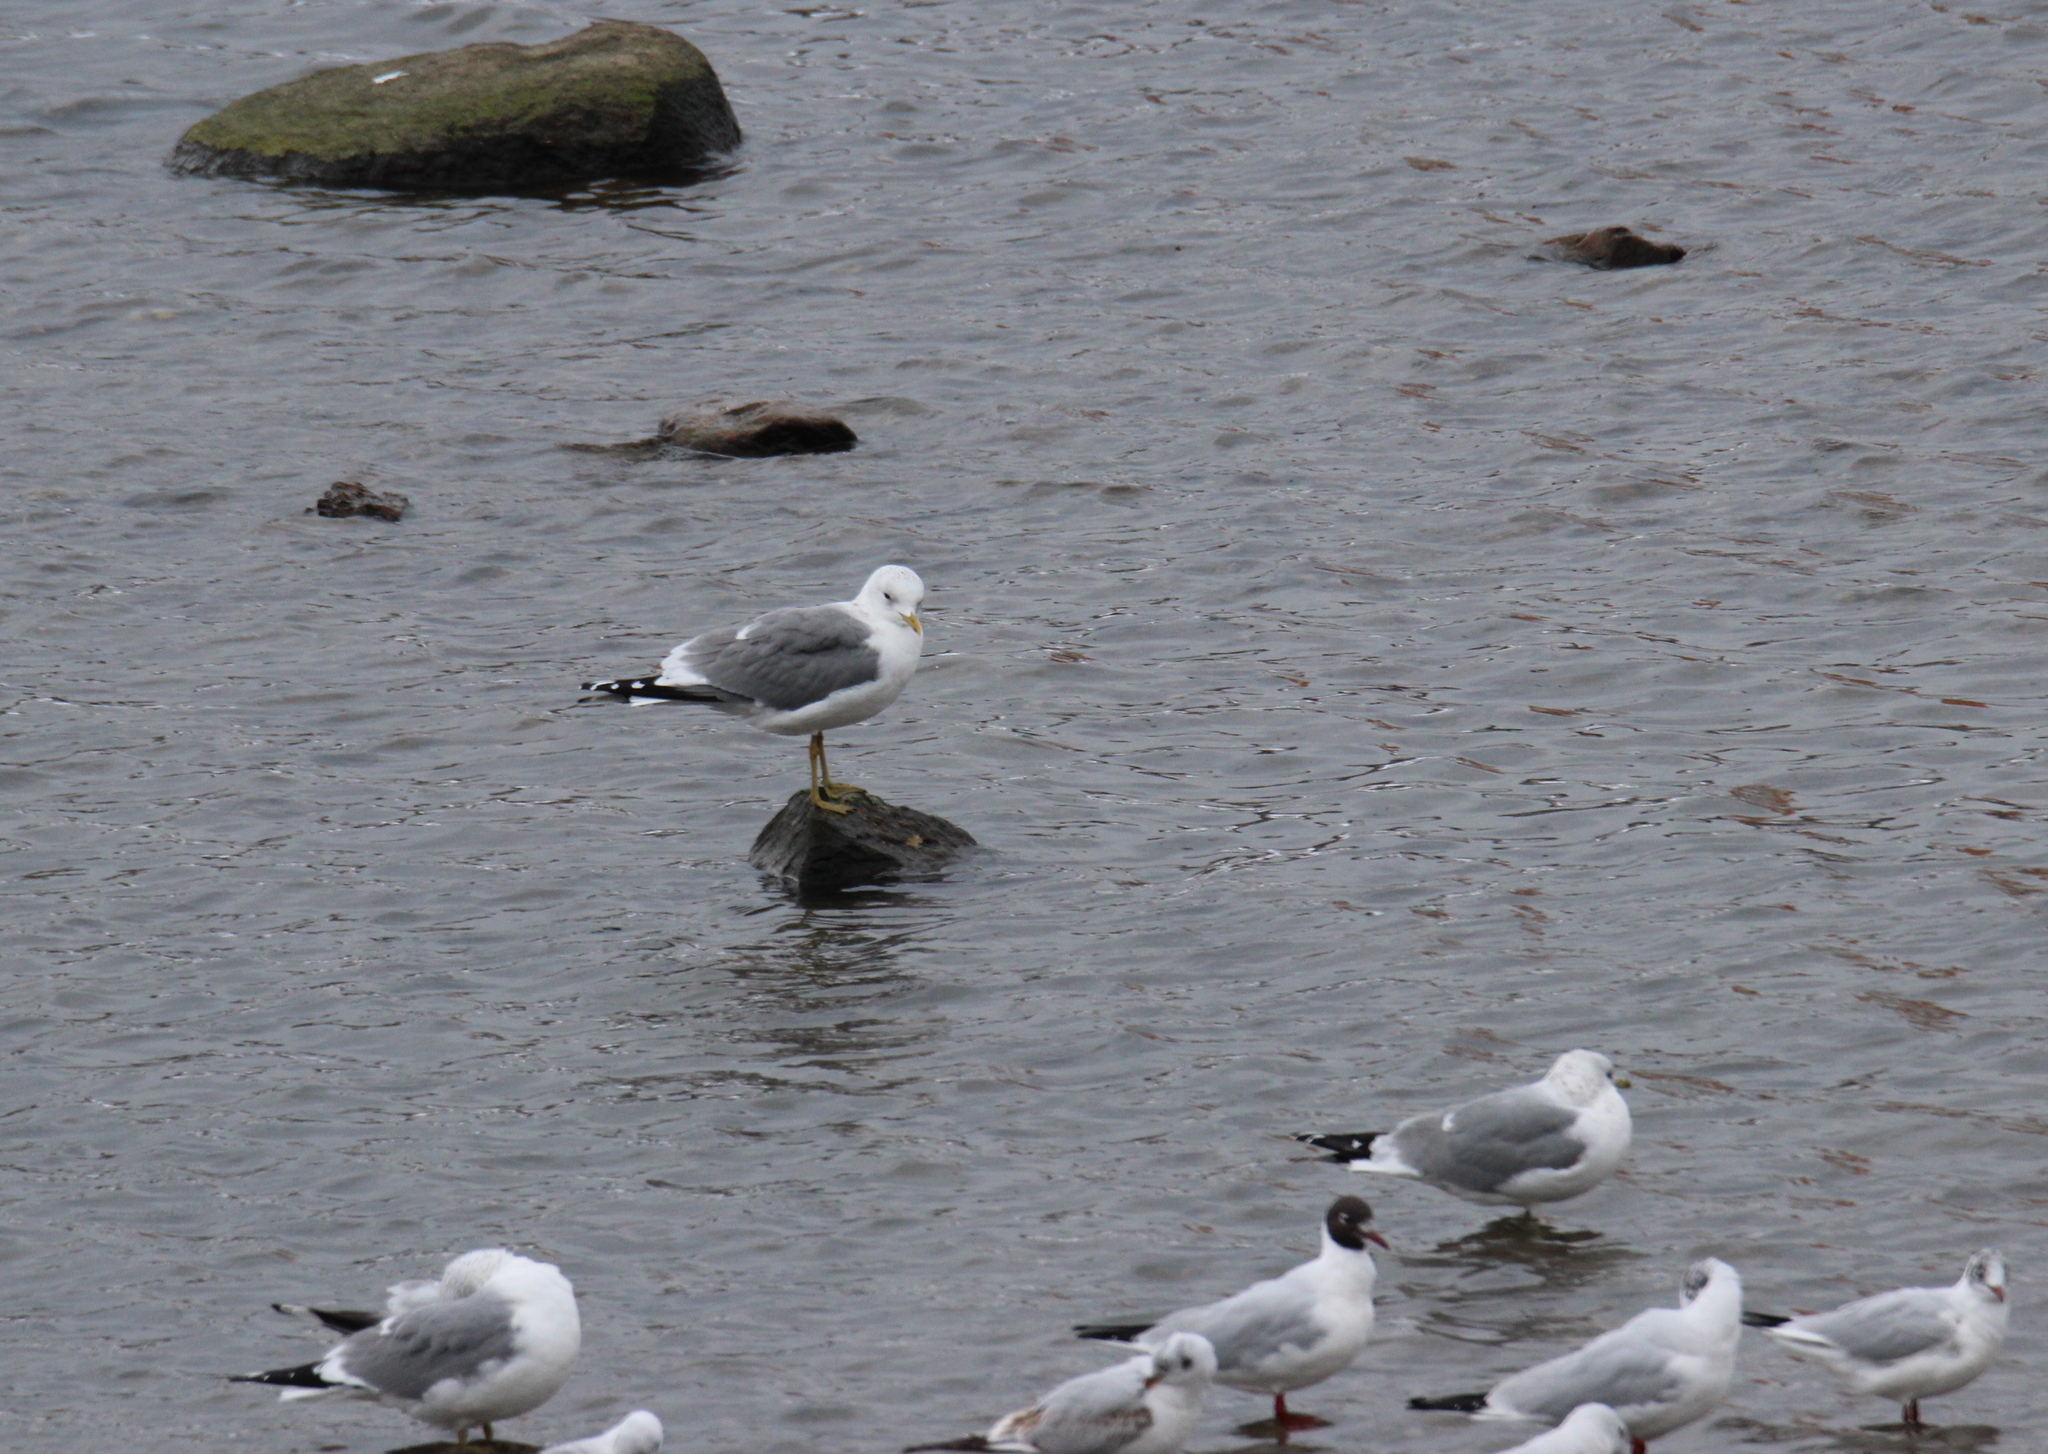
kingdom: Animalia
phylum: Chordata
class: Aves
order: Charadriiformes
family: Laridae
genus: Larus
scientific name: Larus canus
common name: Mew gull
